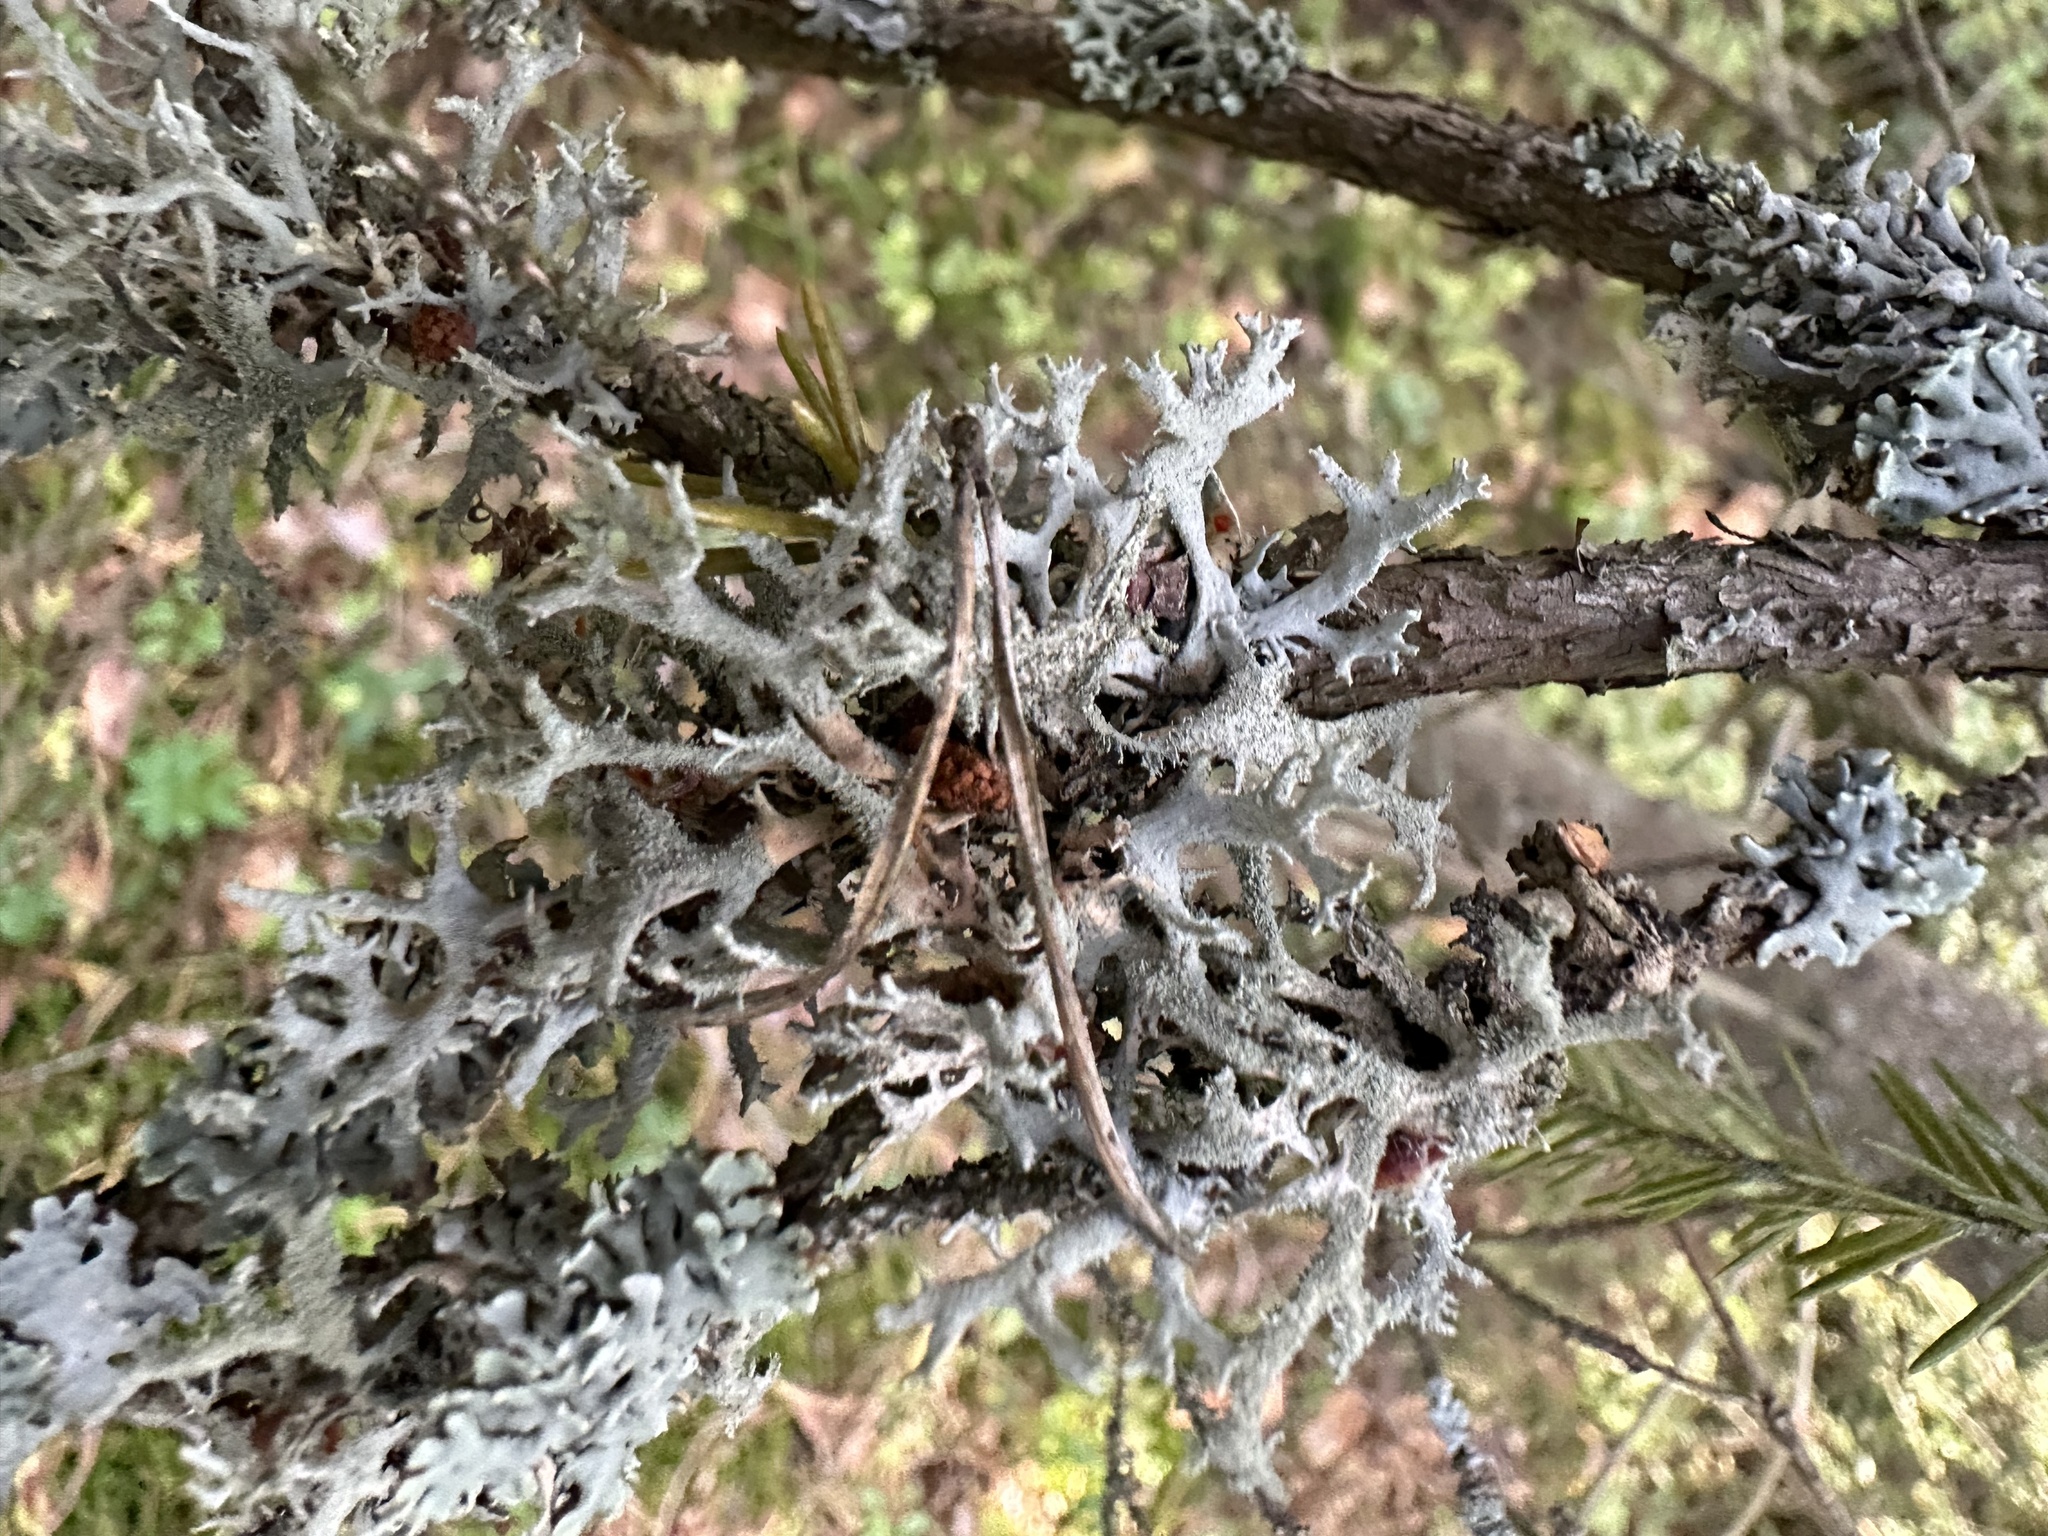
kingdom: Fungi
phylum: Ascomycota
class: Lecanoromycetes
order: Lecanorales
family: Parmeliaceae
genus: Pseudevernia
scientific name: Pseudevernia furfuracea
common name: Tree moss
